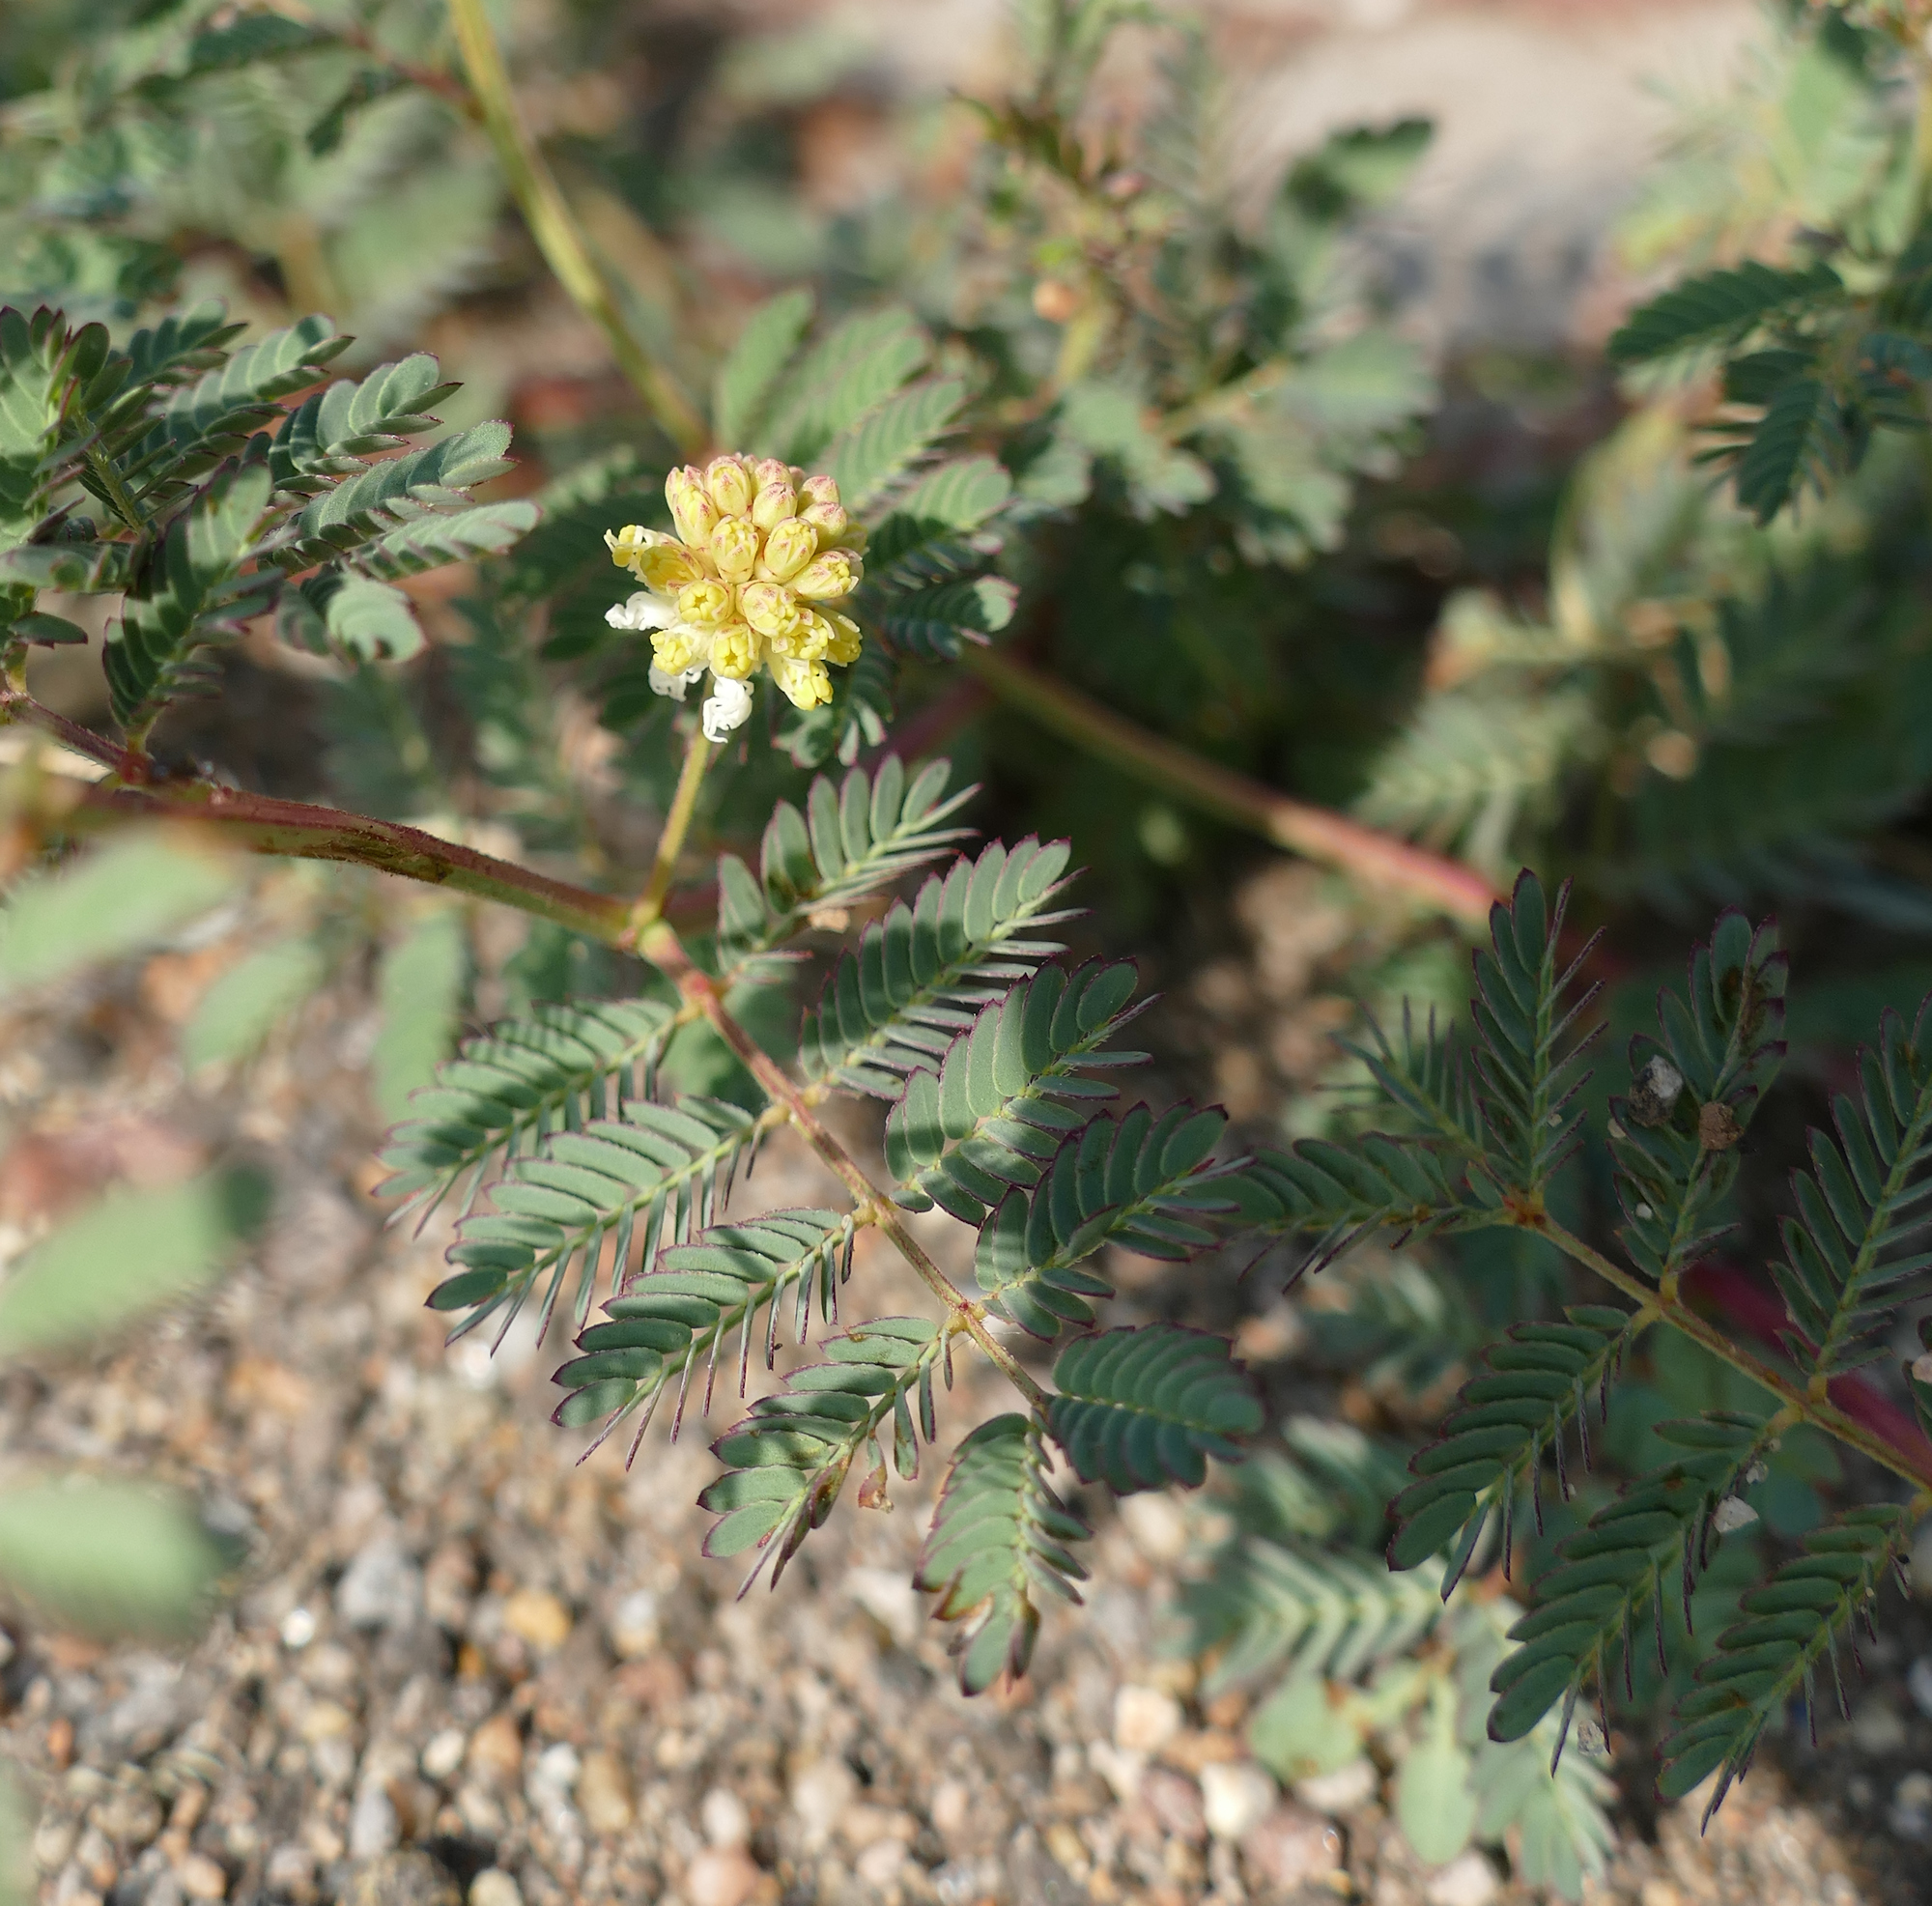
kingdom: Plantae
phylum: Tracheophyta
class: Magnoliopsida
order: Fabales
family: Fabaceae
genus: Desmanthus
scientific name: Desmanthus cooleyi
